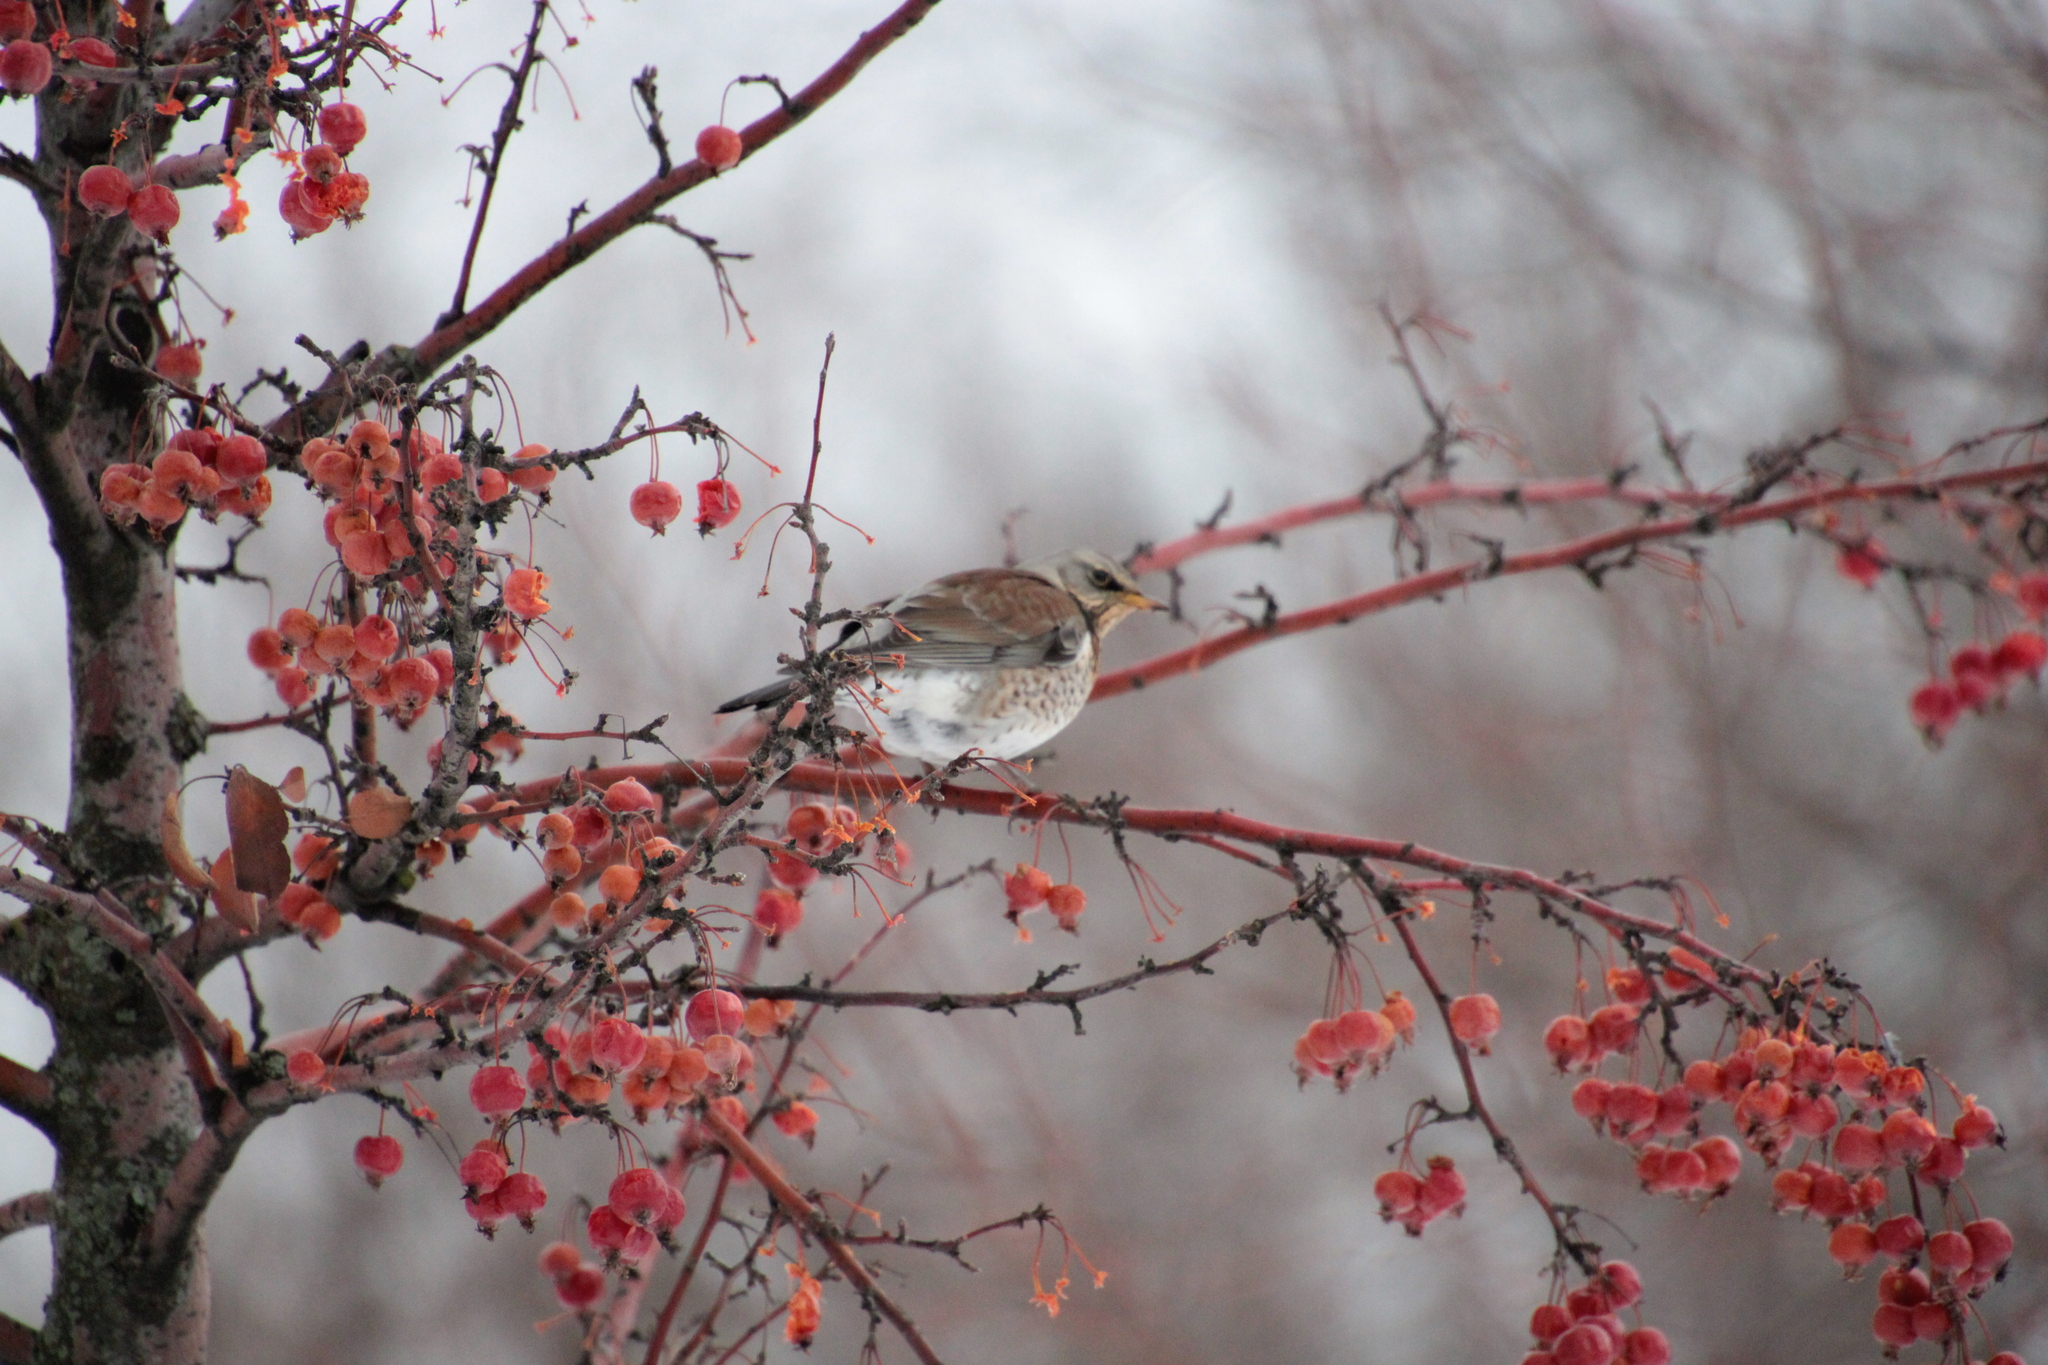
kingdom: Animalia
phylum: Chordata
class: Aves
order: Passeriformes
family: Turdidae
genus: Turdus
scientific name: Turdus pilaris
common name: Fieldfare
